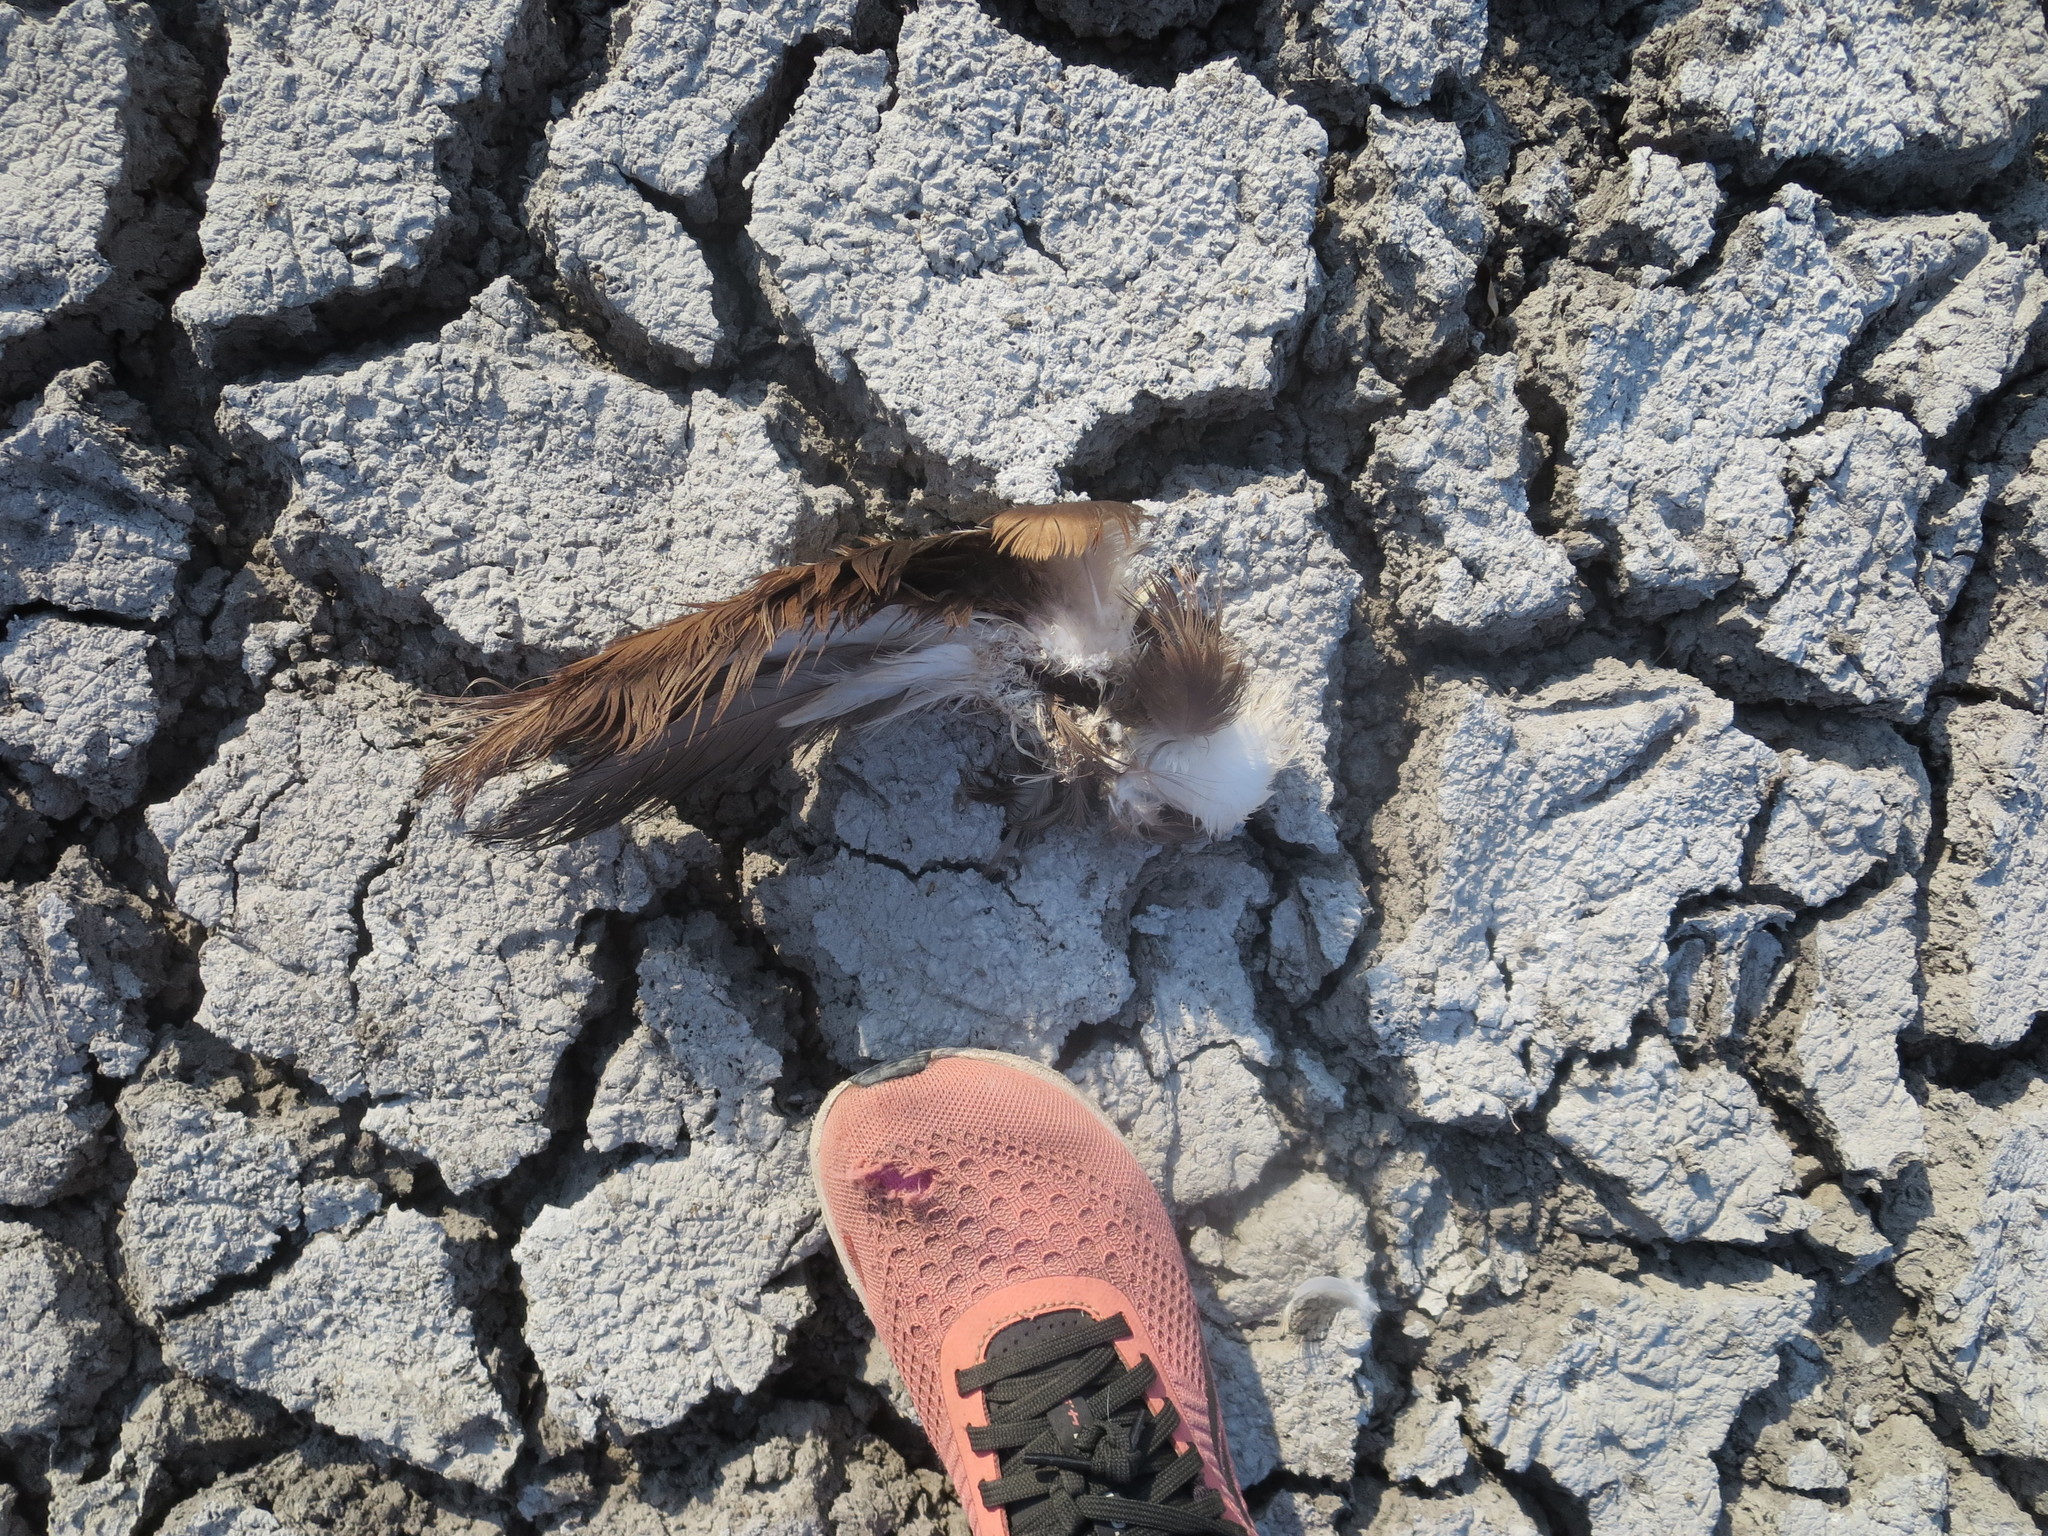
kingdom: Animalia
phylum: Chordata
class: Aves
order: Anseriformes
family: Anatidae
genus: Cairina
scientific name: Cairina moschata
